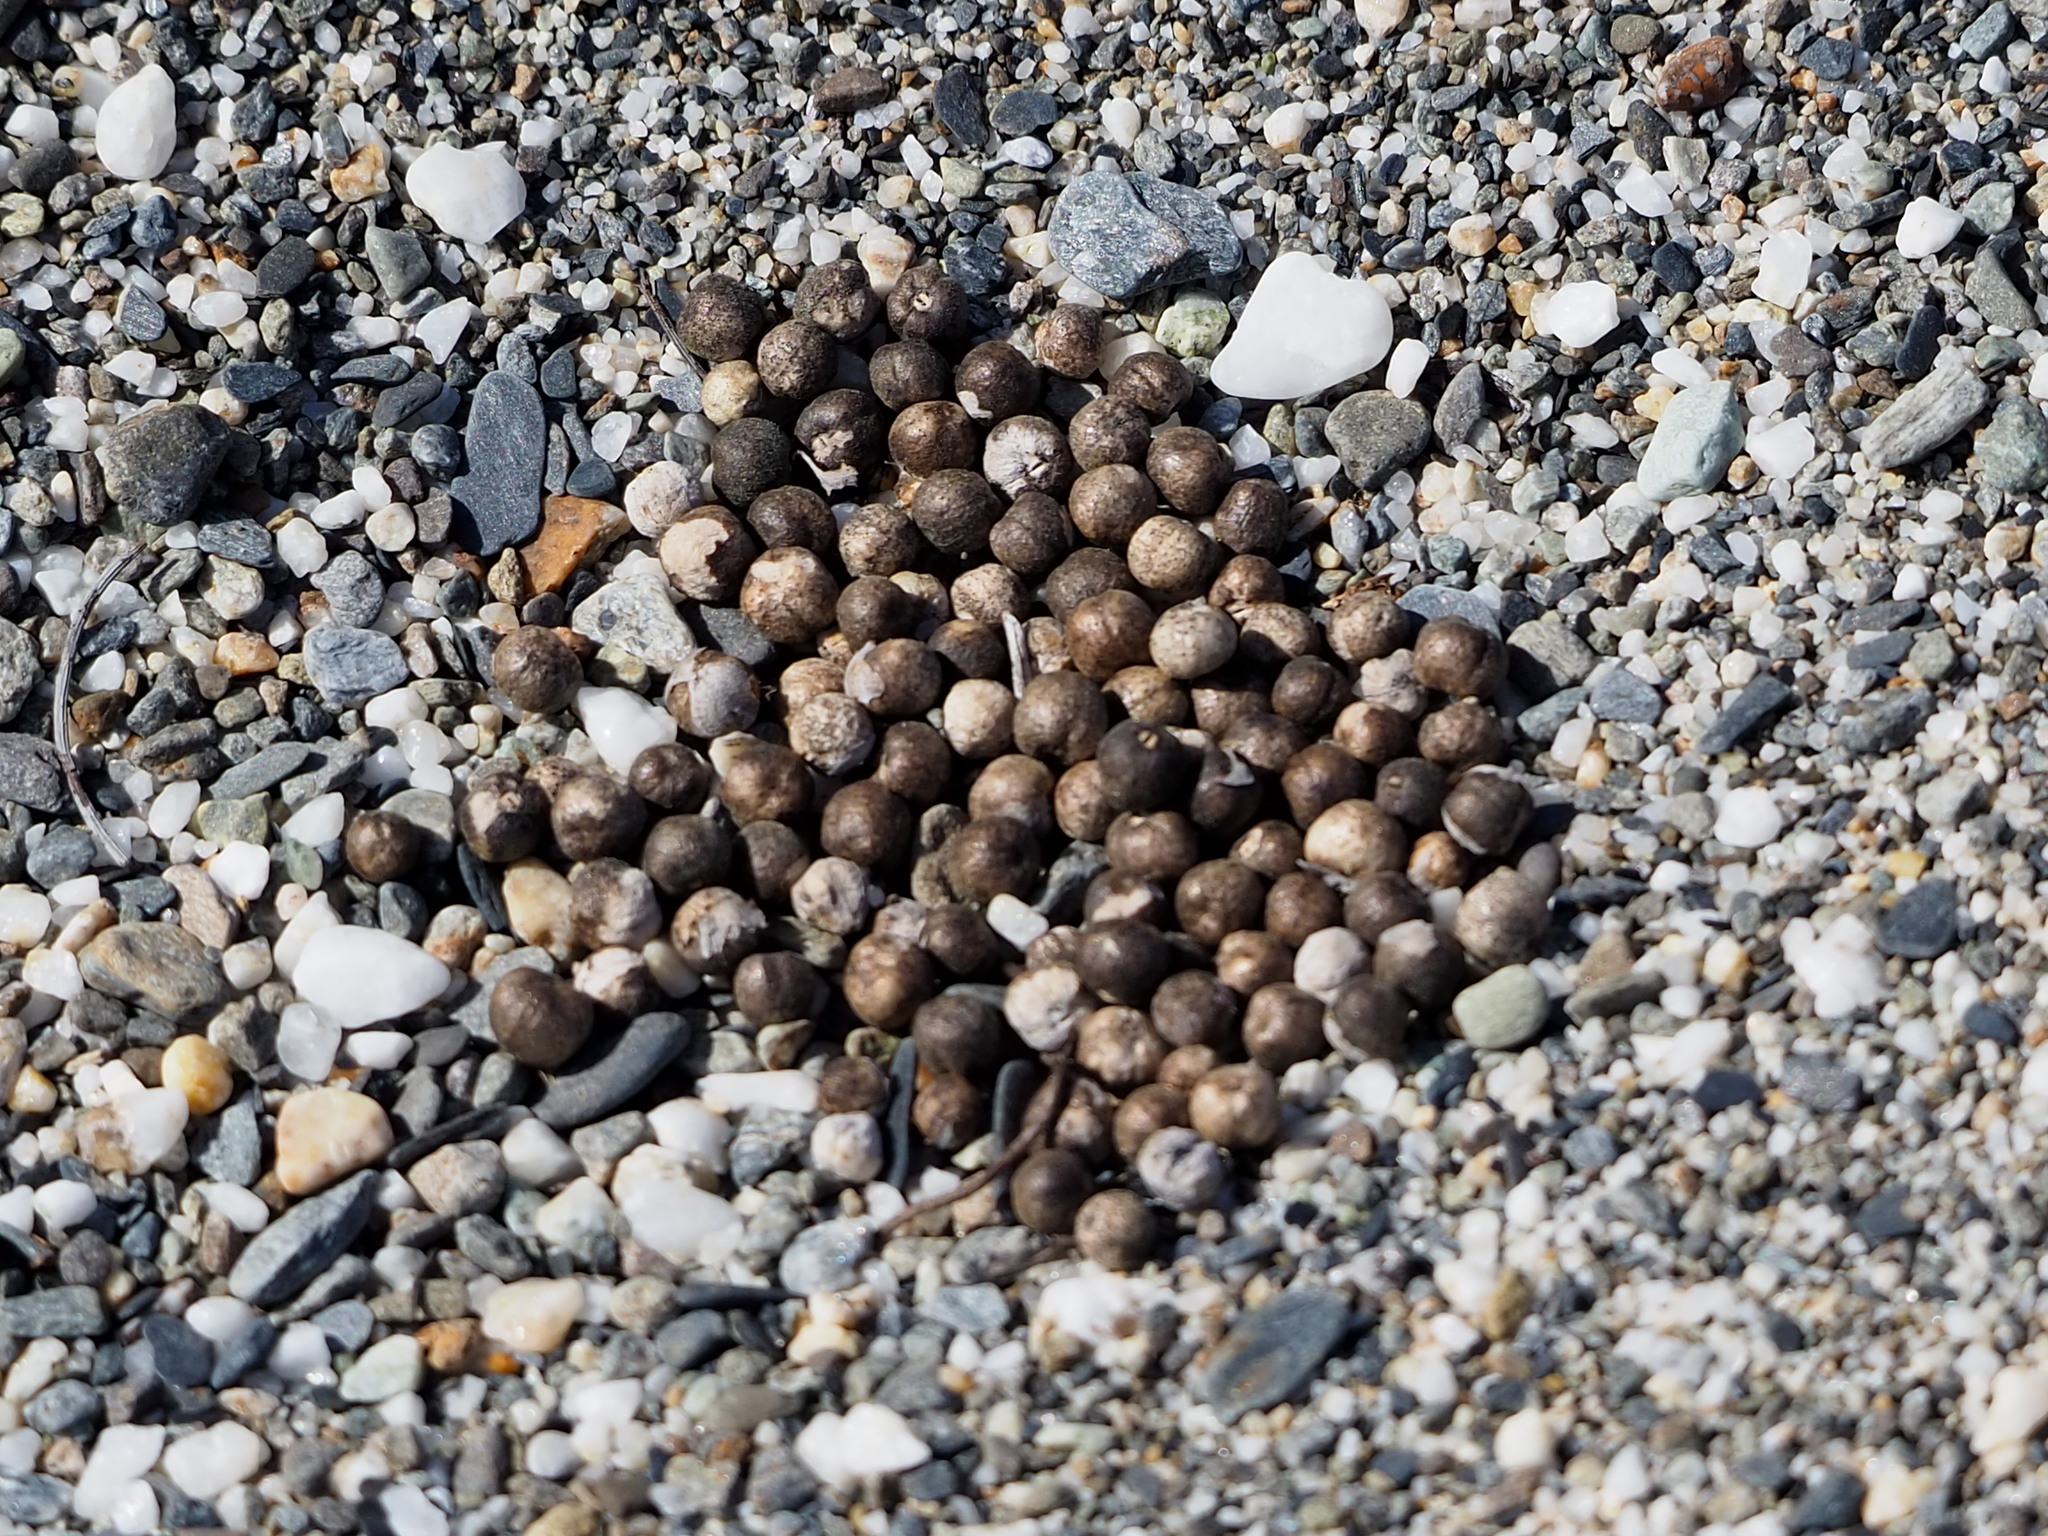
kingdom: Plantae
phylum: Tracheophyta
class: Magnoliopsida
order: Lamiales
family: Lamiaceae
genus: Vitex
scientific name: Vitex rotundifolia
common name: Beach vitex
